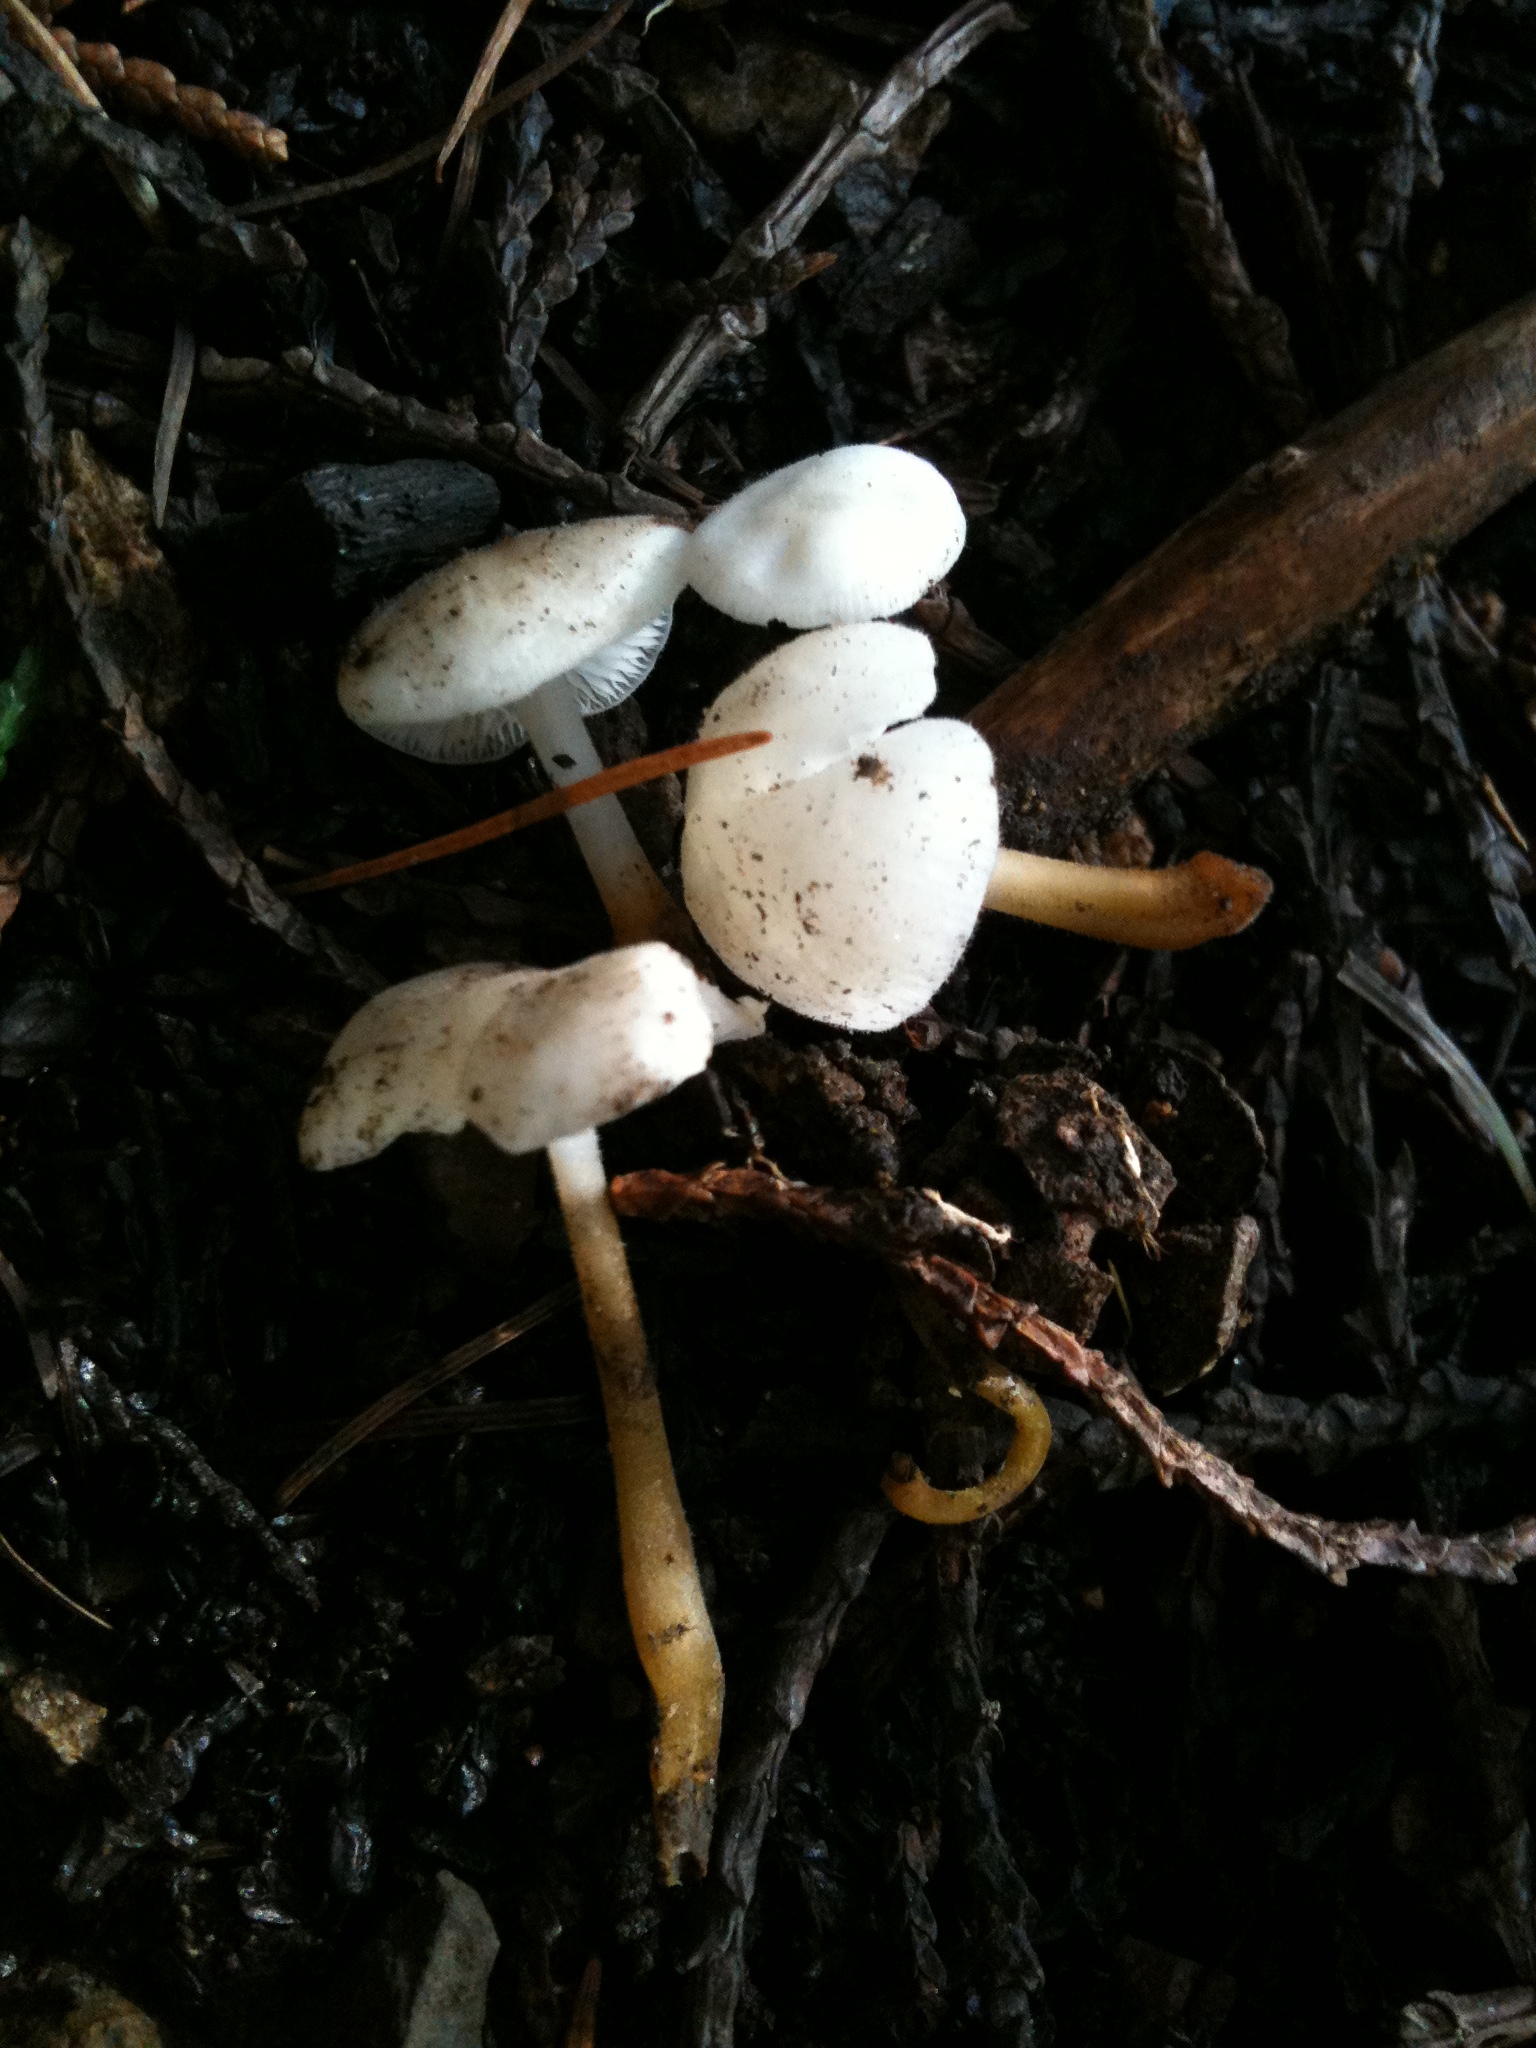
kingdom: Fungi
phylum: Basidiomycota
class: Agaricomycetes
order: Agaricales
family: Physalacriaceae
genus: Strobilurus
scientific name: Strobilurus ohshimae
